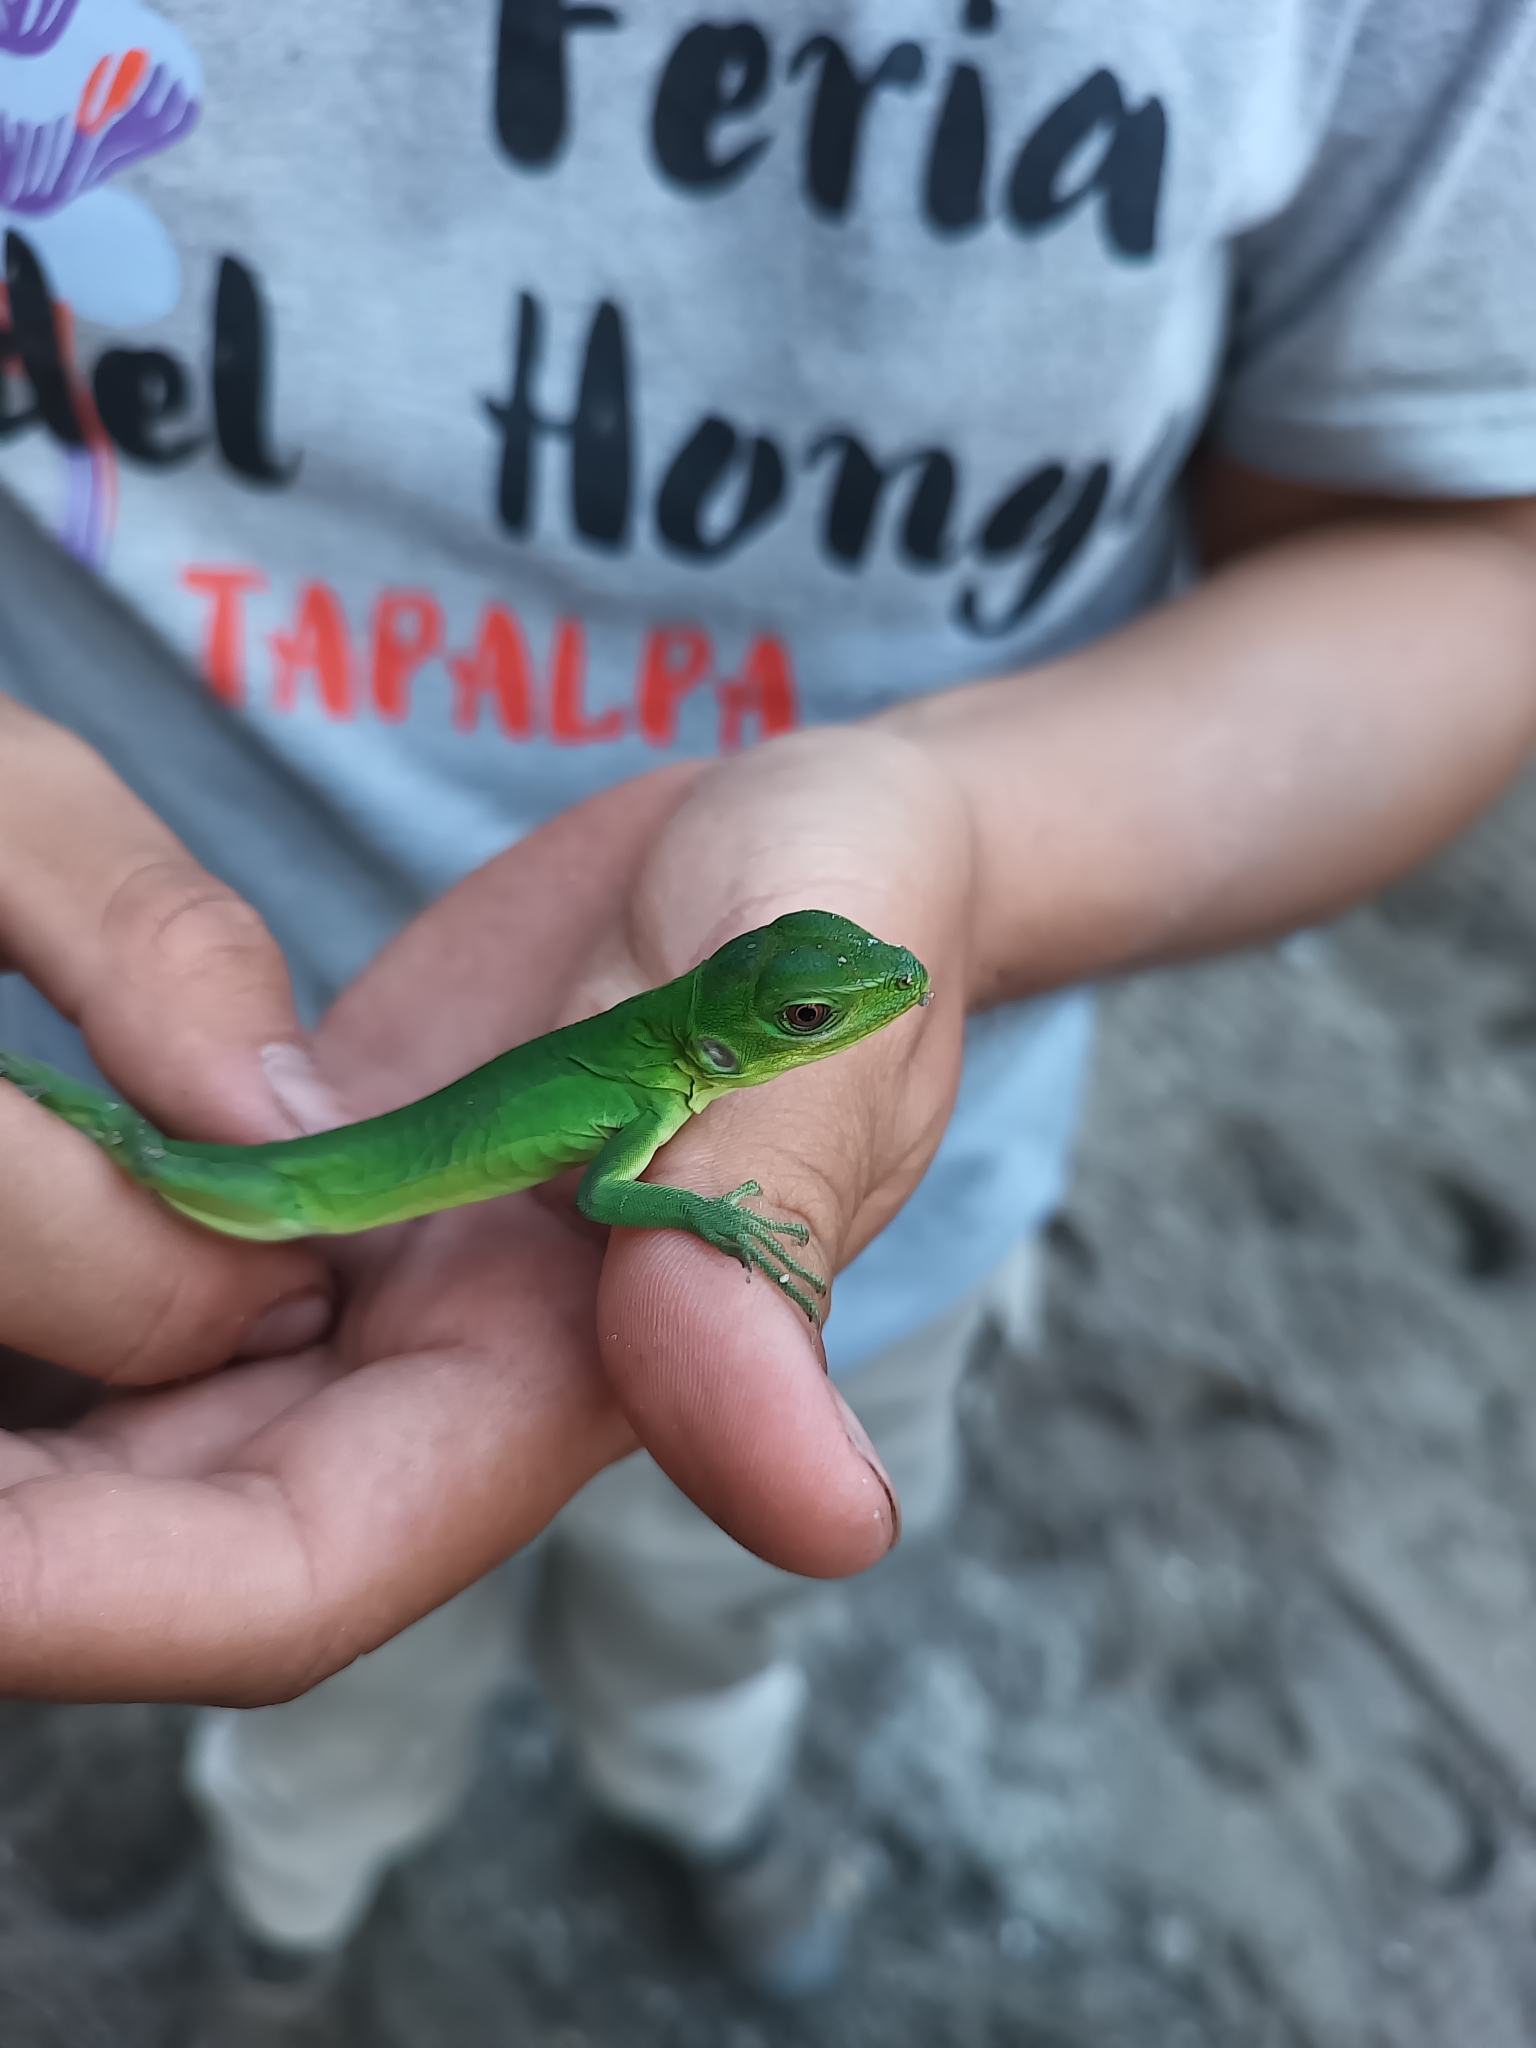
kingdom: Animalia
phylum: Chordata
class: Squamata
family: Iguanidae
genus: Ctenosaura
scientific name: Ctenosaura pectinata
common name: Guerreran spiny-tailed iguana
